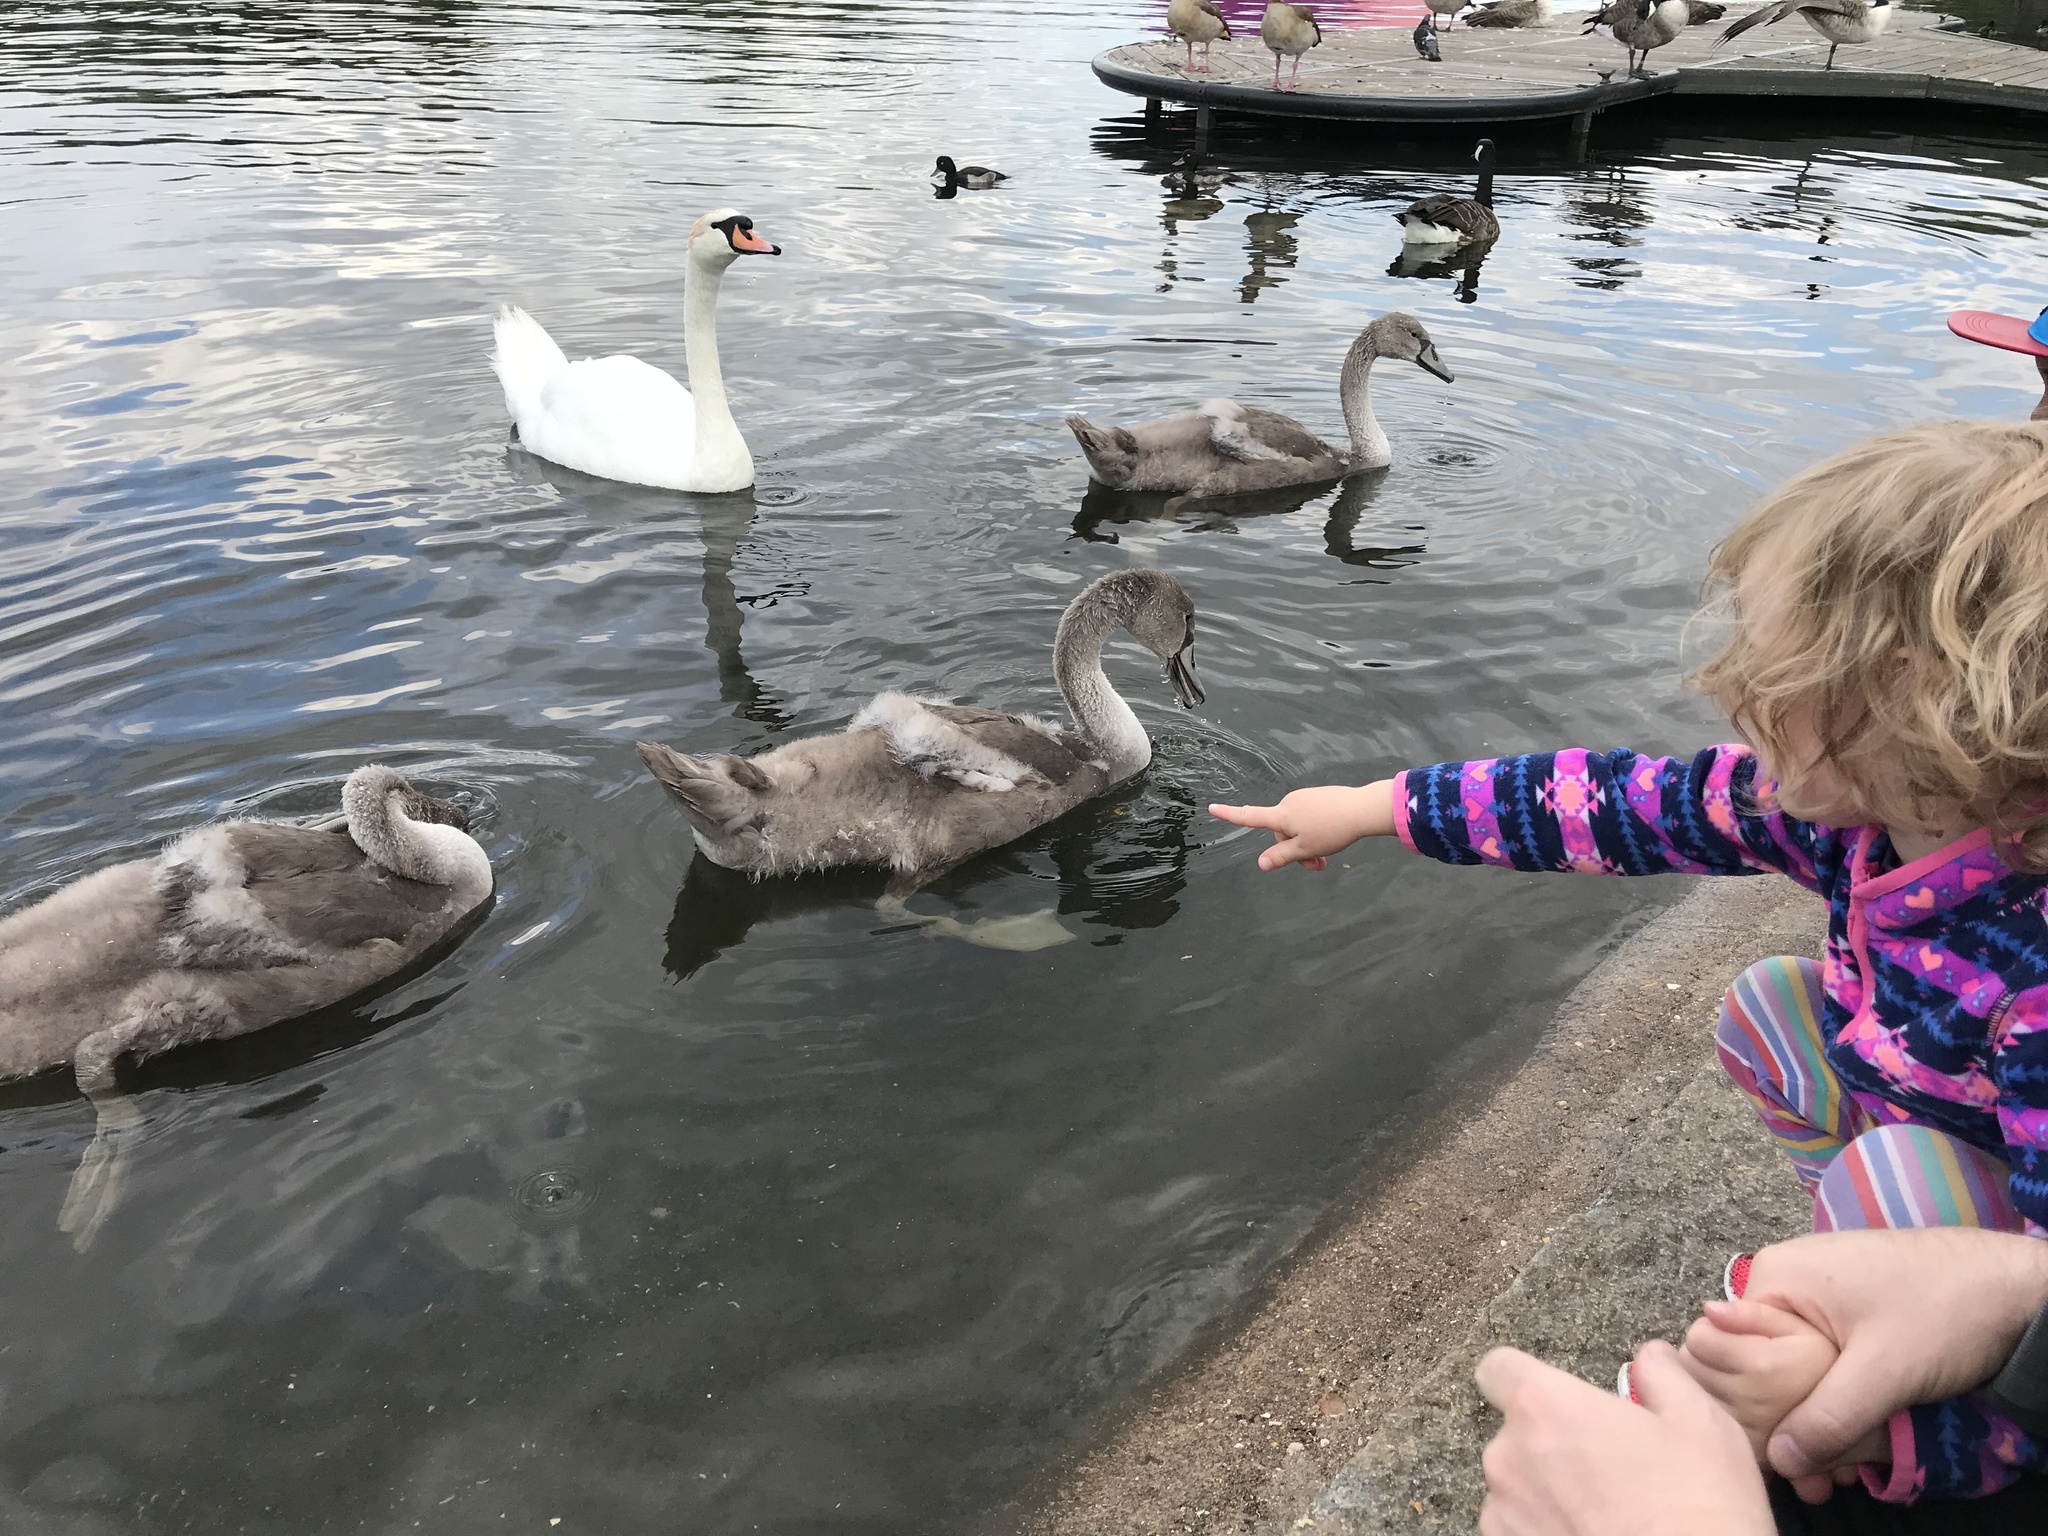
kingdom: Animalia
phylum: Chordata
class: Aves
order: Anseriformes
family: Anatidae
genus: Cygnus
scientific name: Cygnus olor
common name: Mute swan
